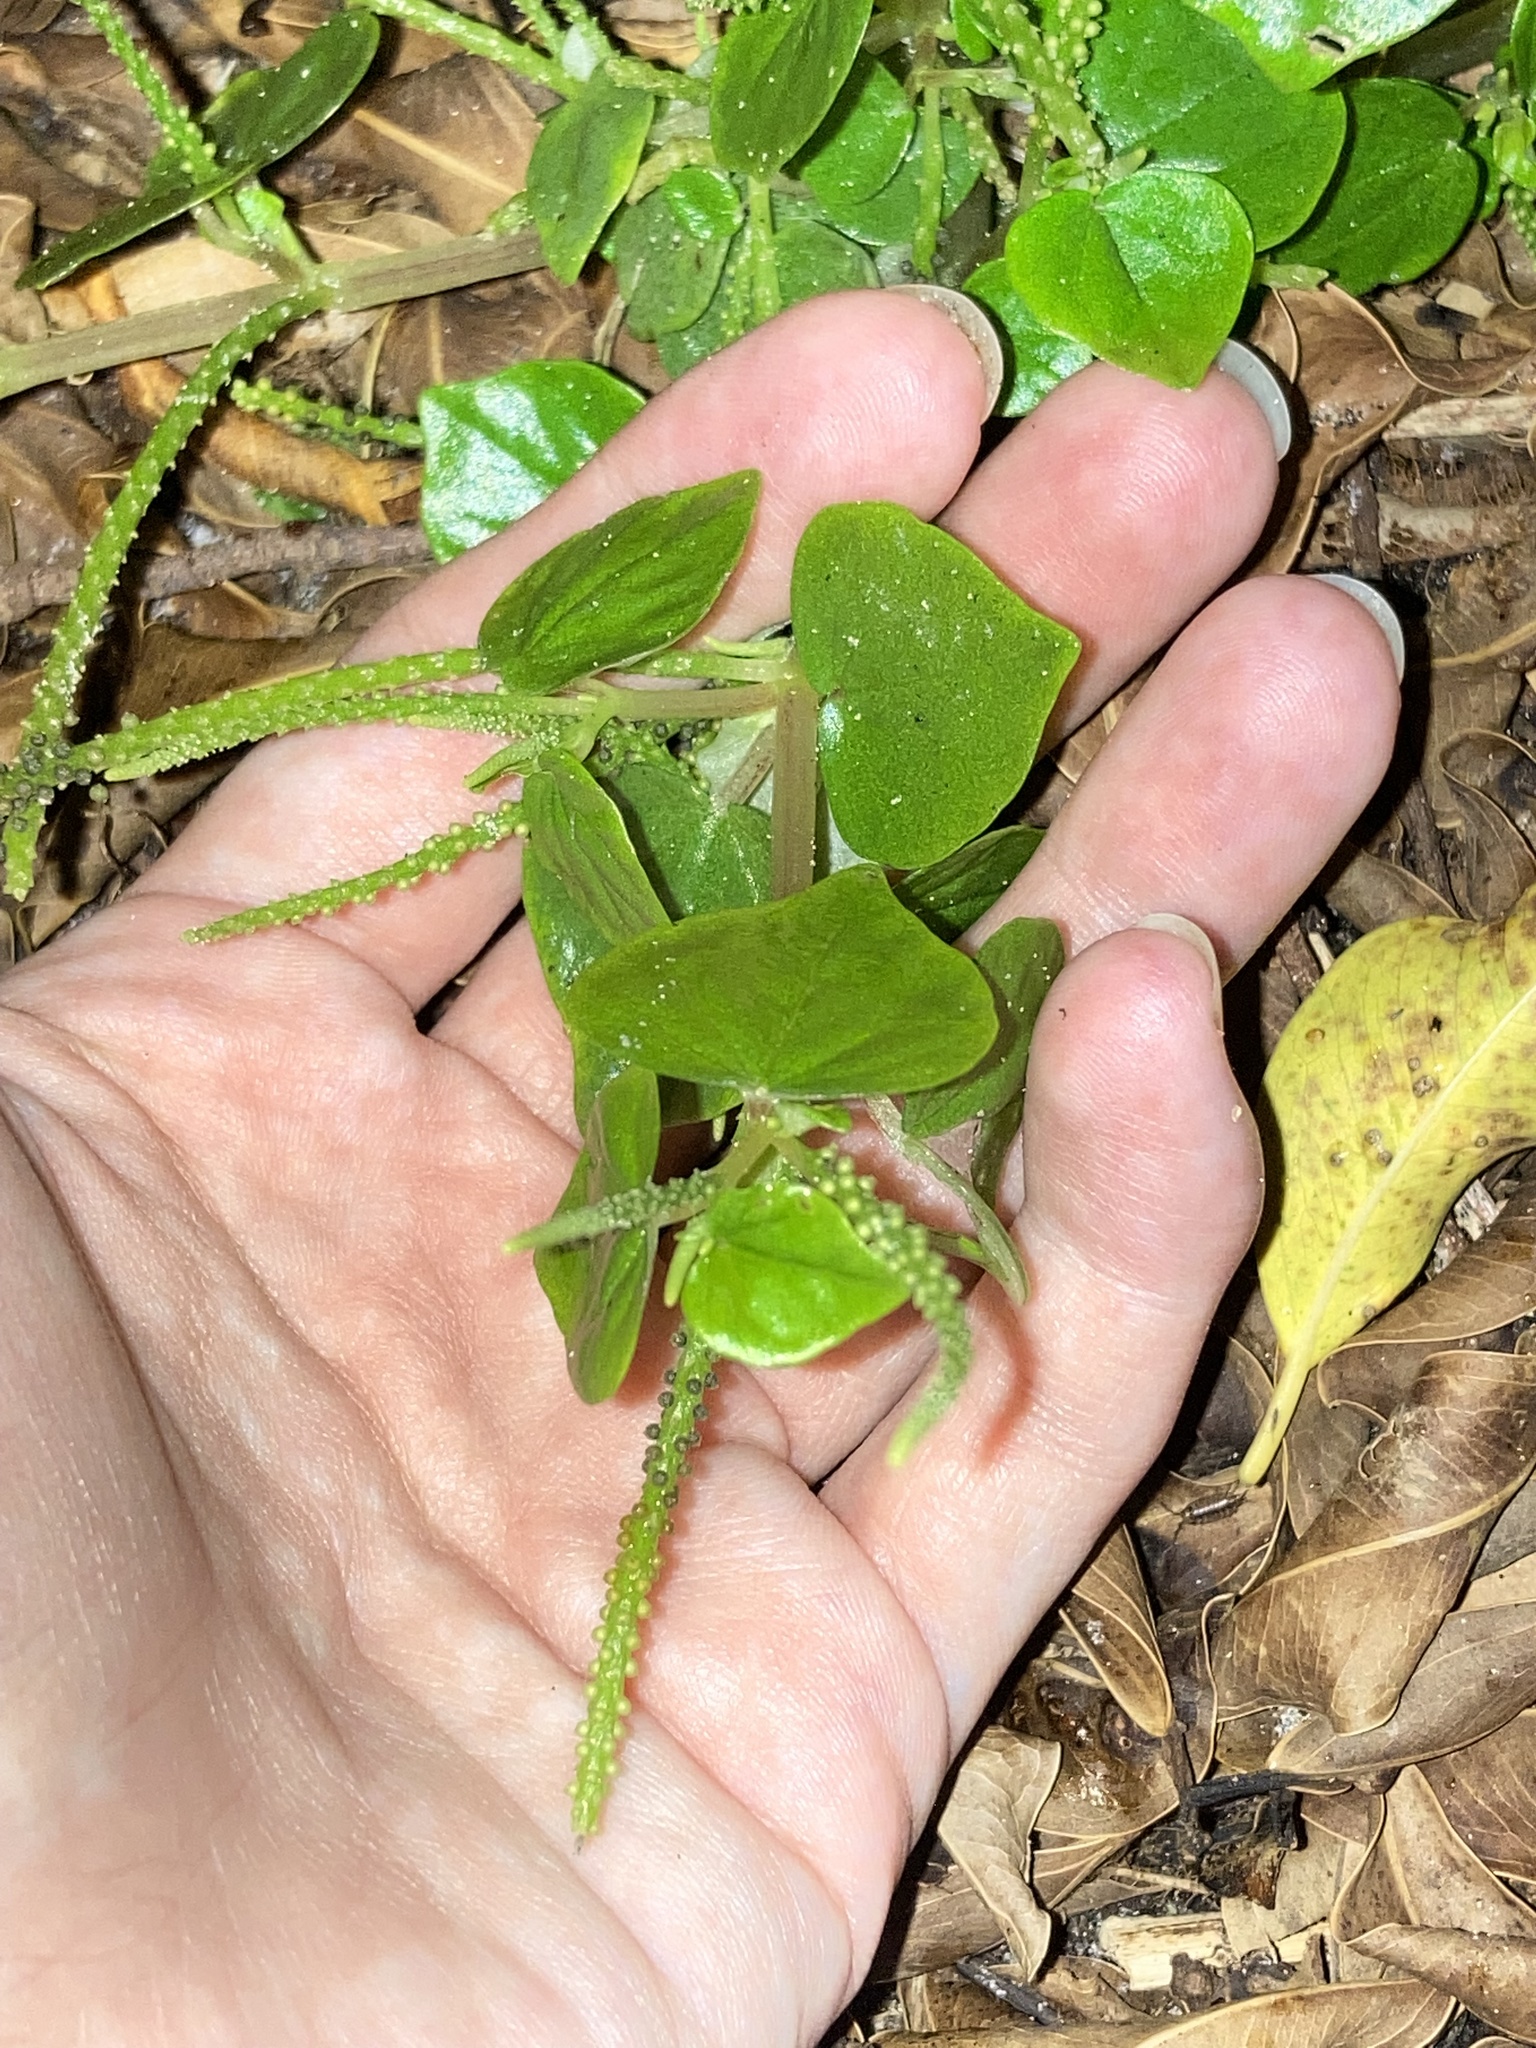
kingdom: Plantae
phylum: Tracheophyta
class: Magnoliopsida
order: Piperales
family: Piperaceae
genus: Peperomia
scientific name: Peperomia pellucida
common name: Man to man
